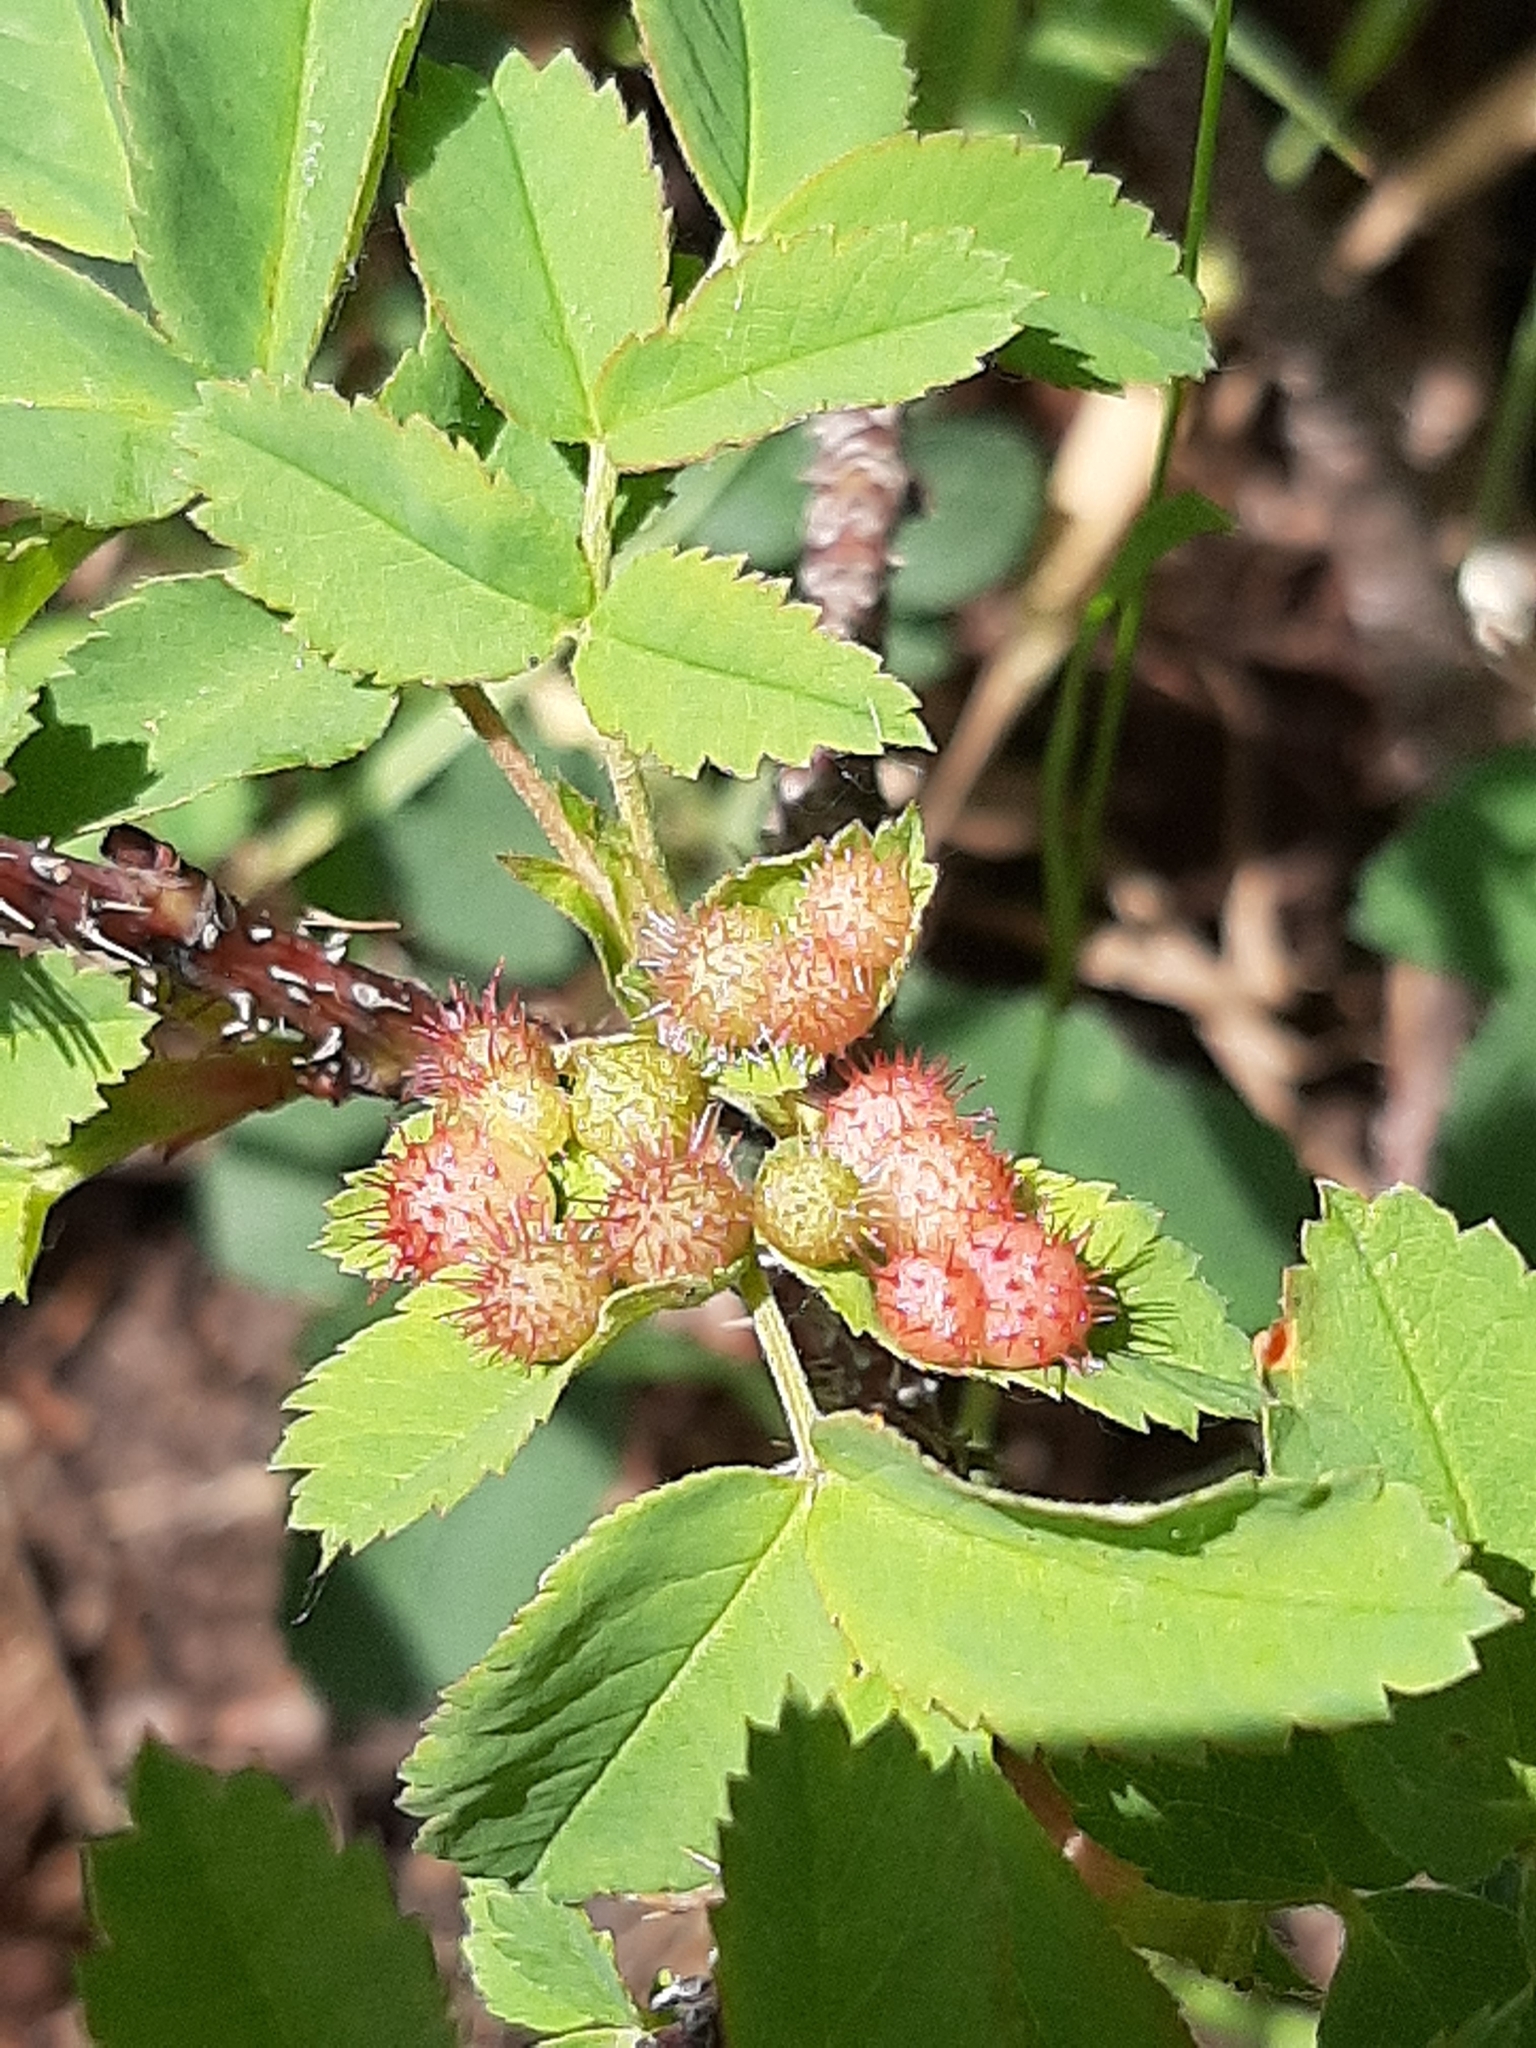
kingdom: Animalia
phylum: Arthropoda
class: Insecta
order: Hymenoptera
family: Cynipidae
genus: Diplolepis
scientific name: Diplolepis polita
